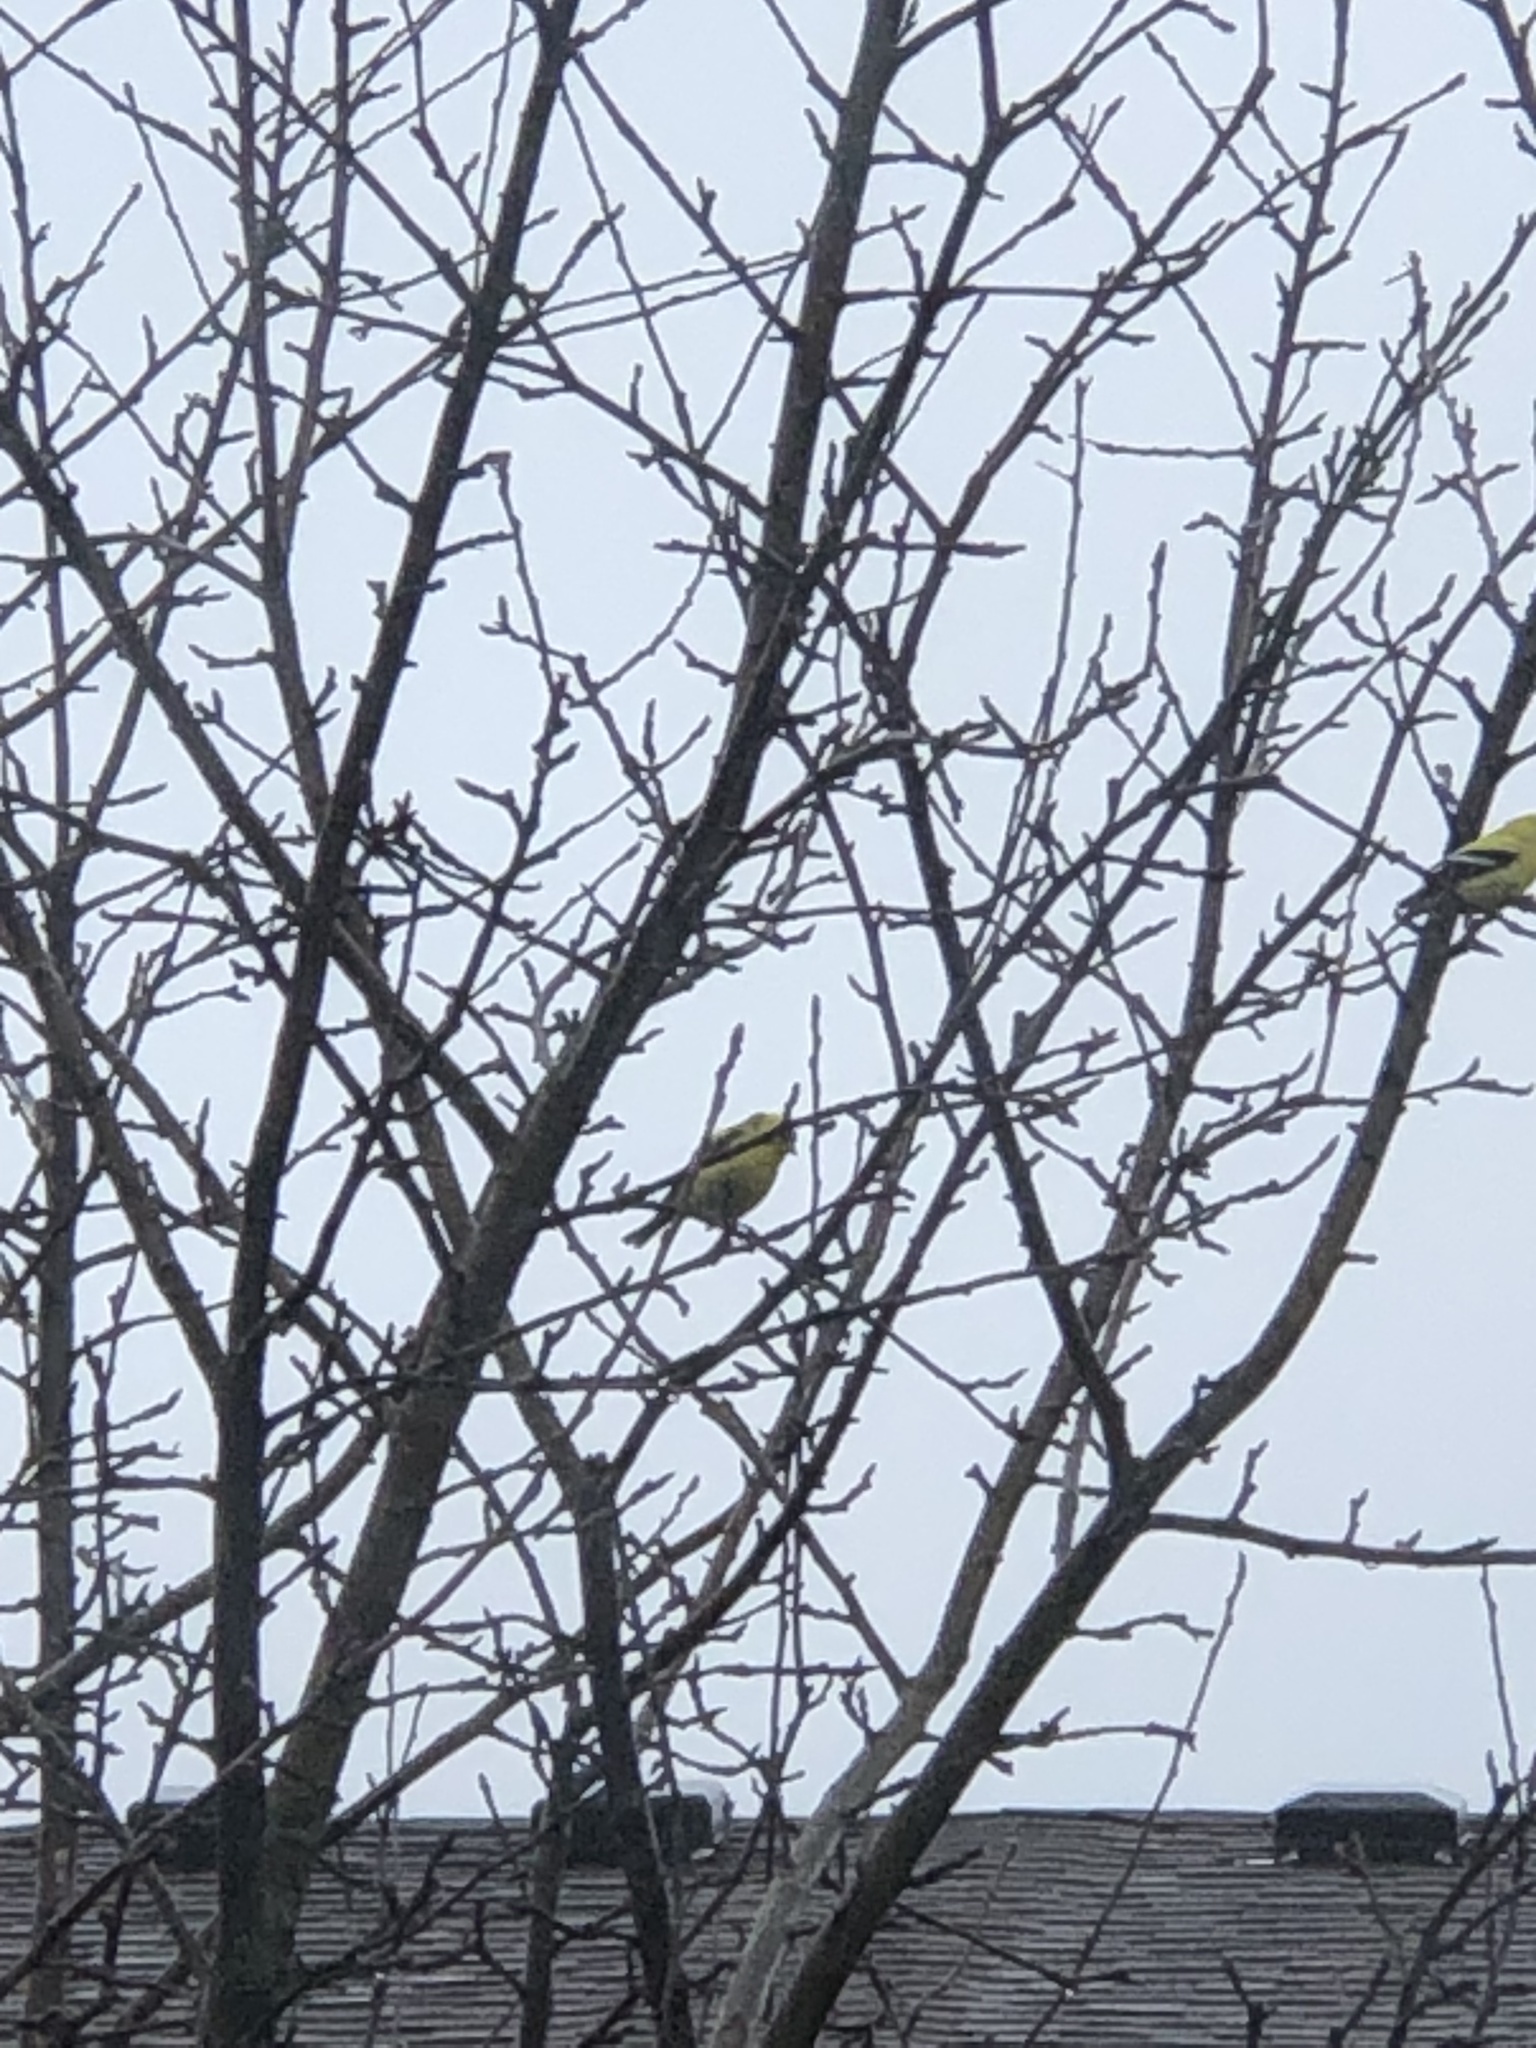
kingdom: Animalia
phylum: Chordata
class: Aves
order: Passeriformes
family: Fringillidae
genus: Spinus
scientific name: Spinus tristis
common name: American goldfinch
